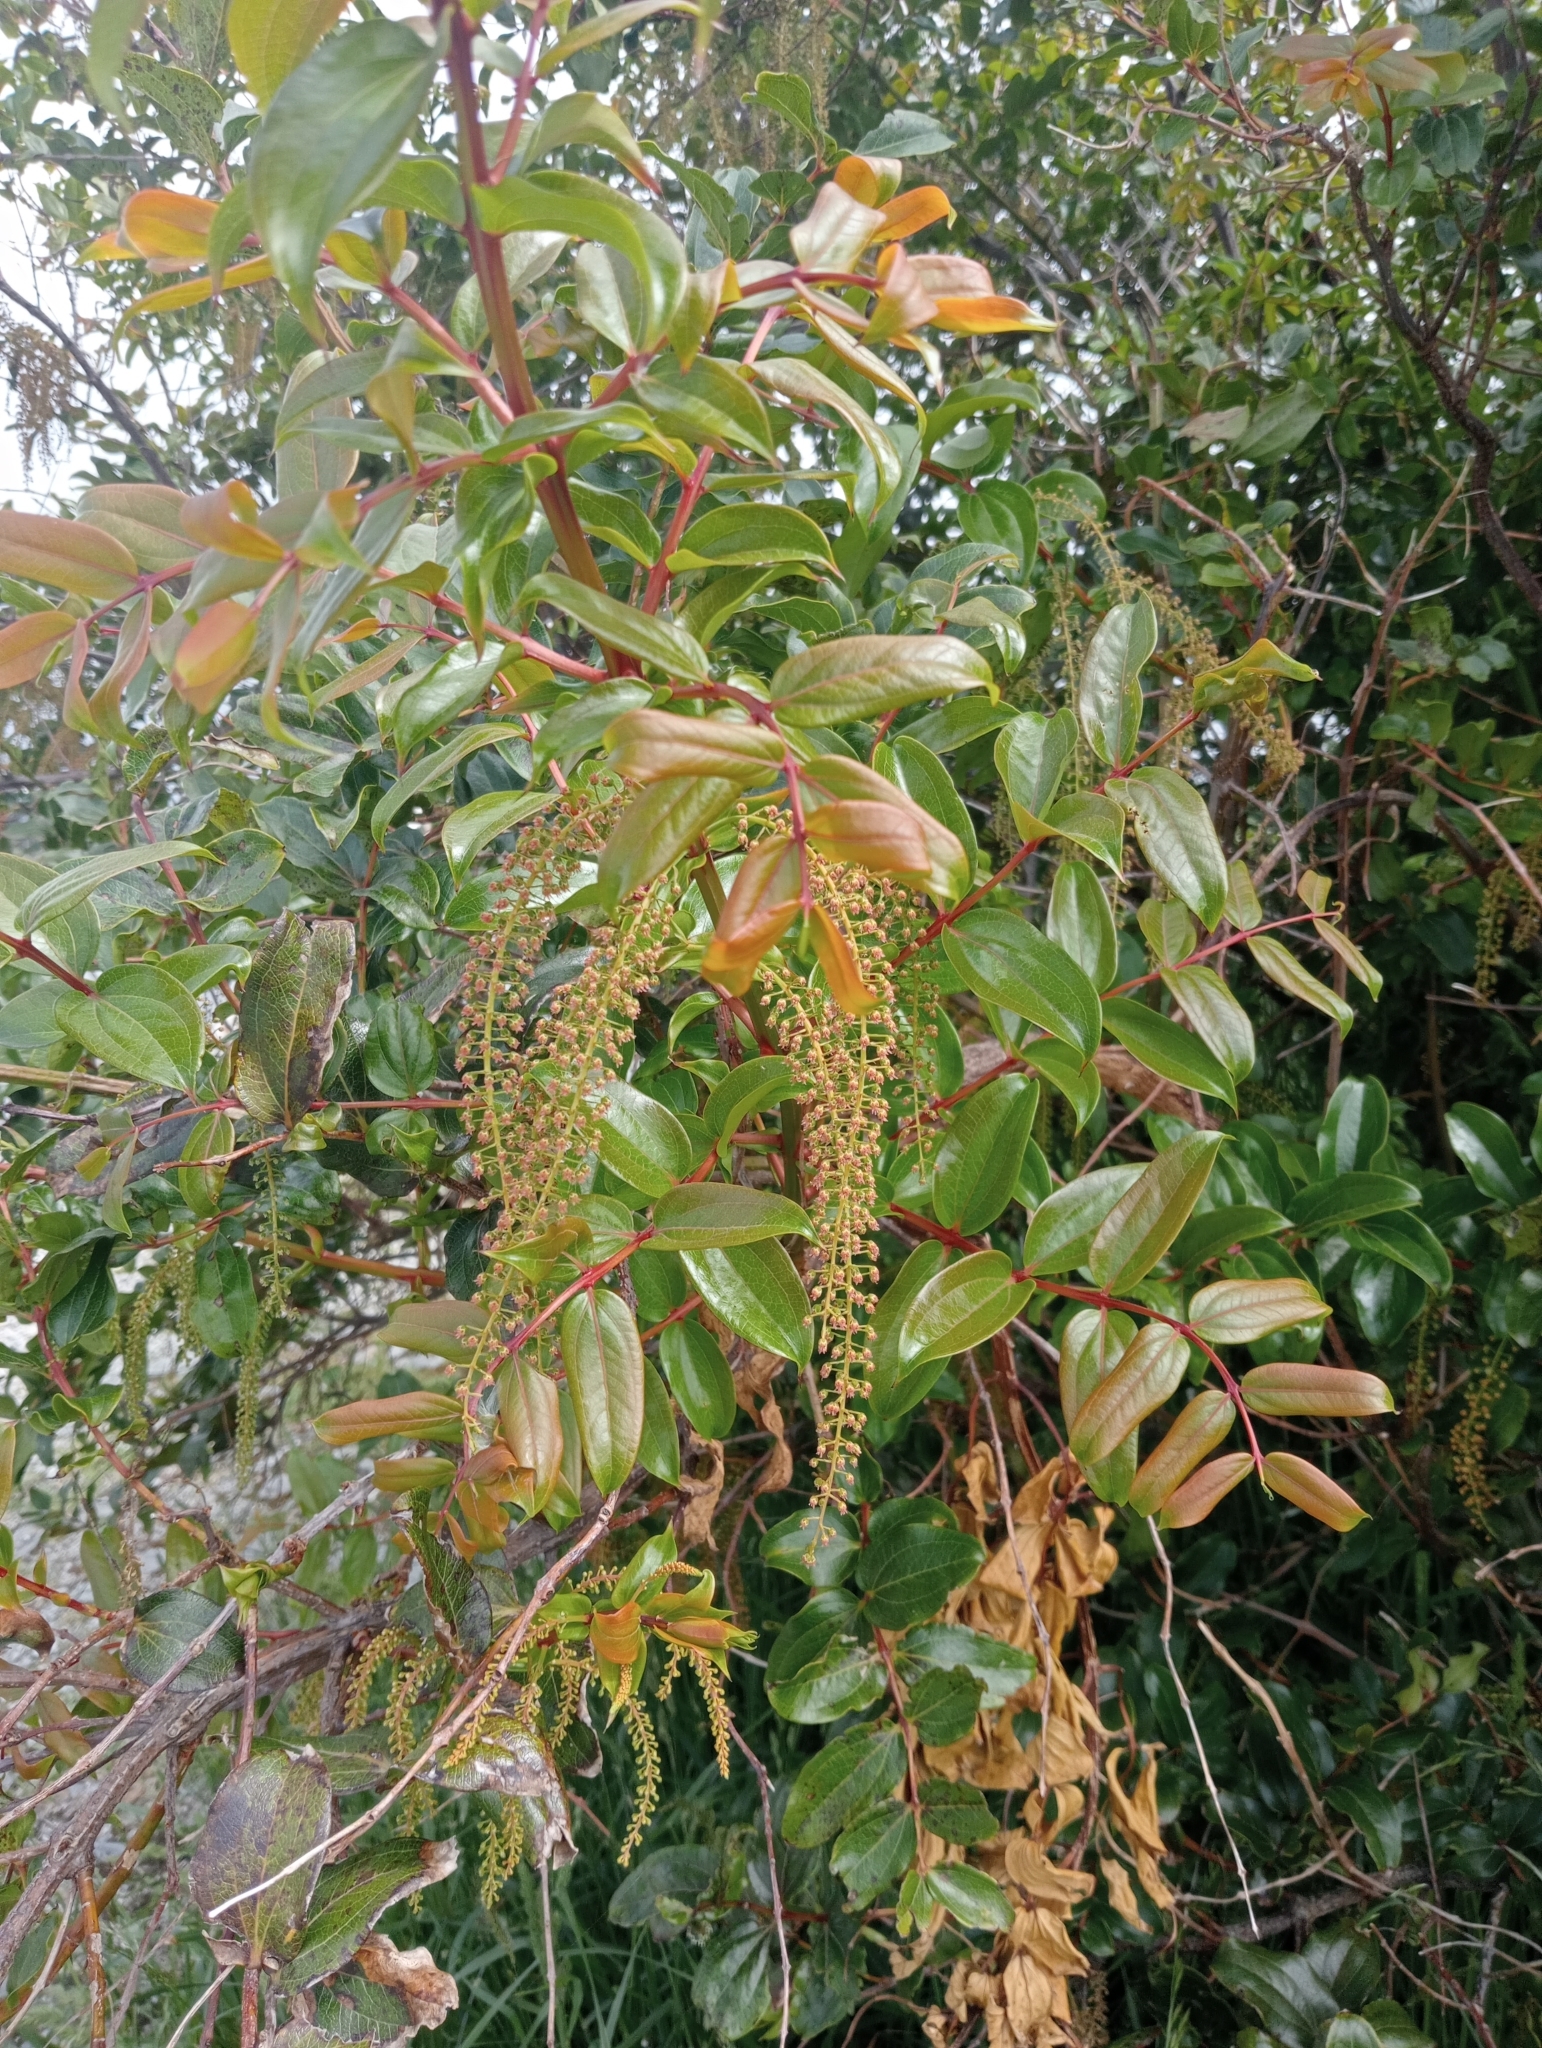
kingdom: Plantae
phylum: Tracheophyta
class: Magnoliopsida
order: Cucurbitales
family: Coriariaceae
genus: Coriaria
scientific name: Coriaria arborea
